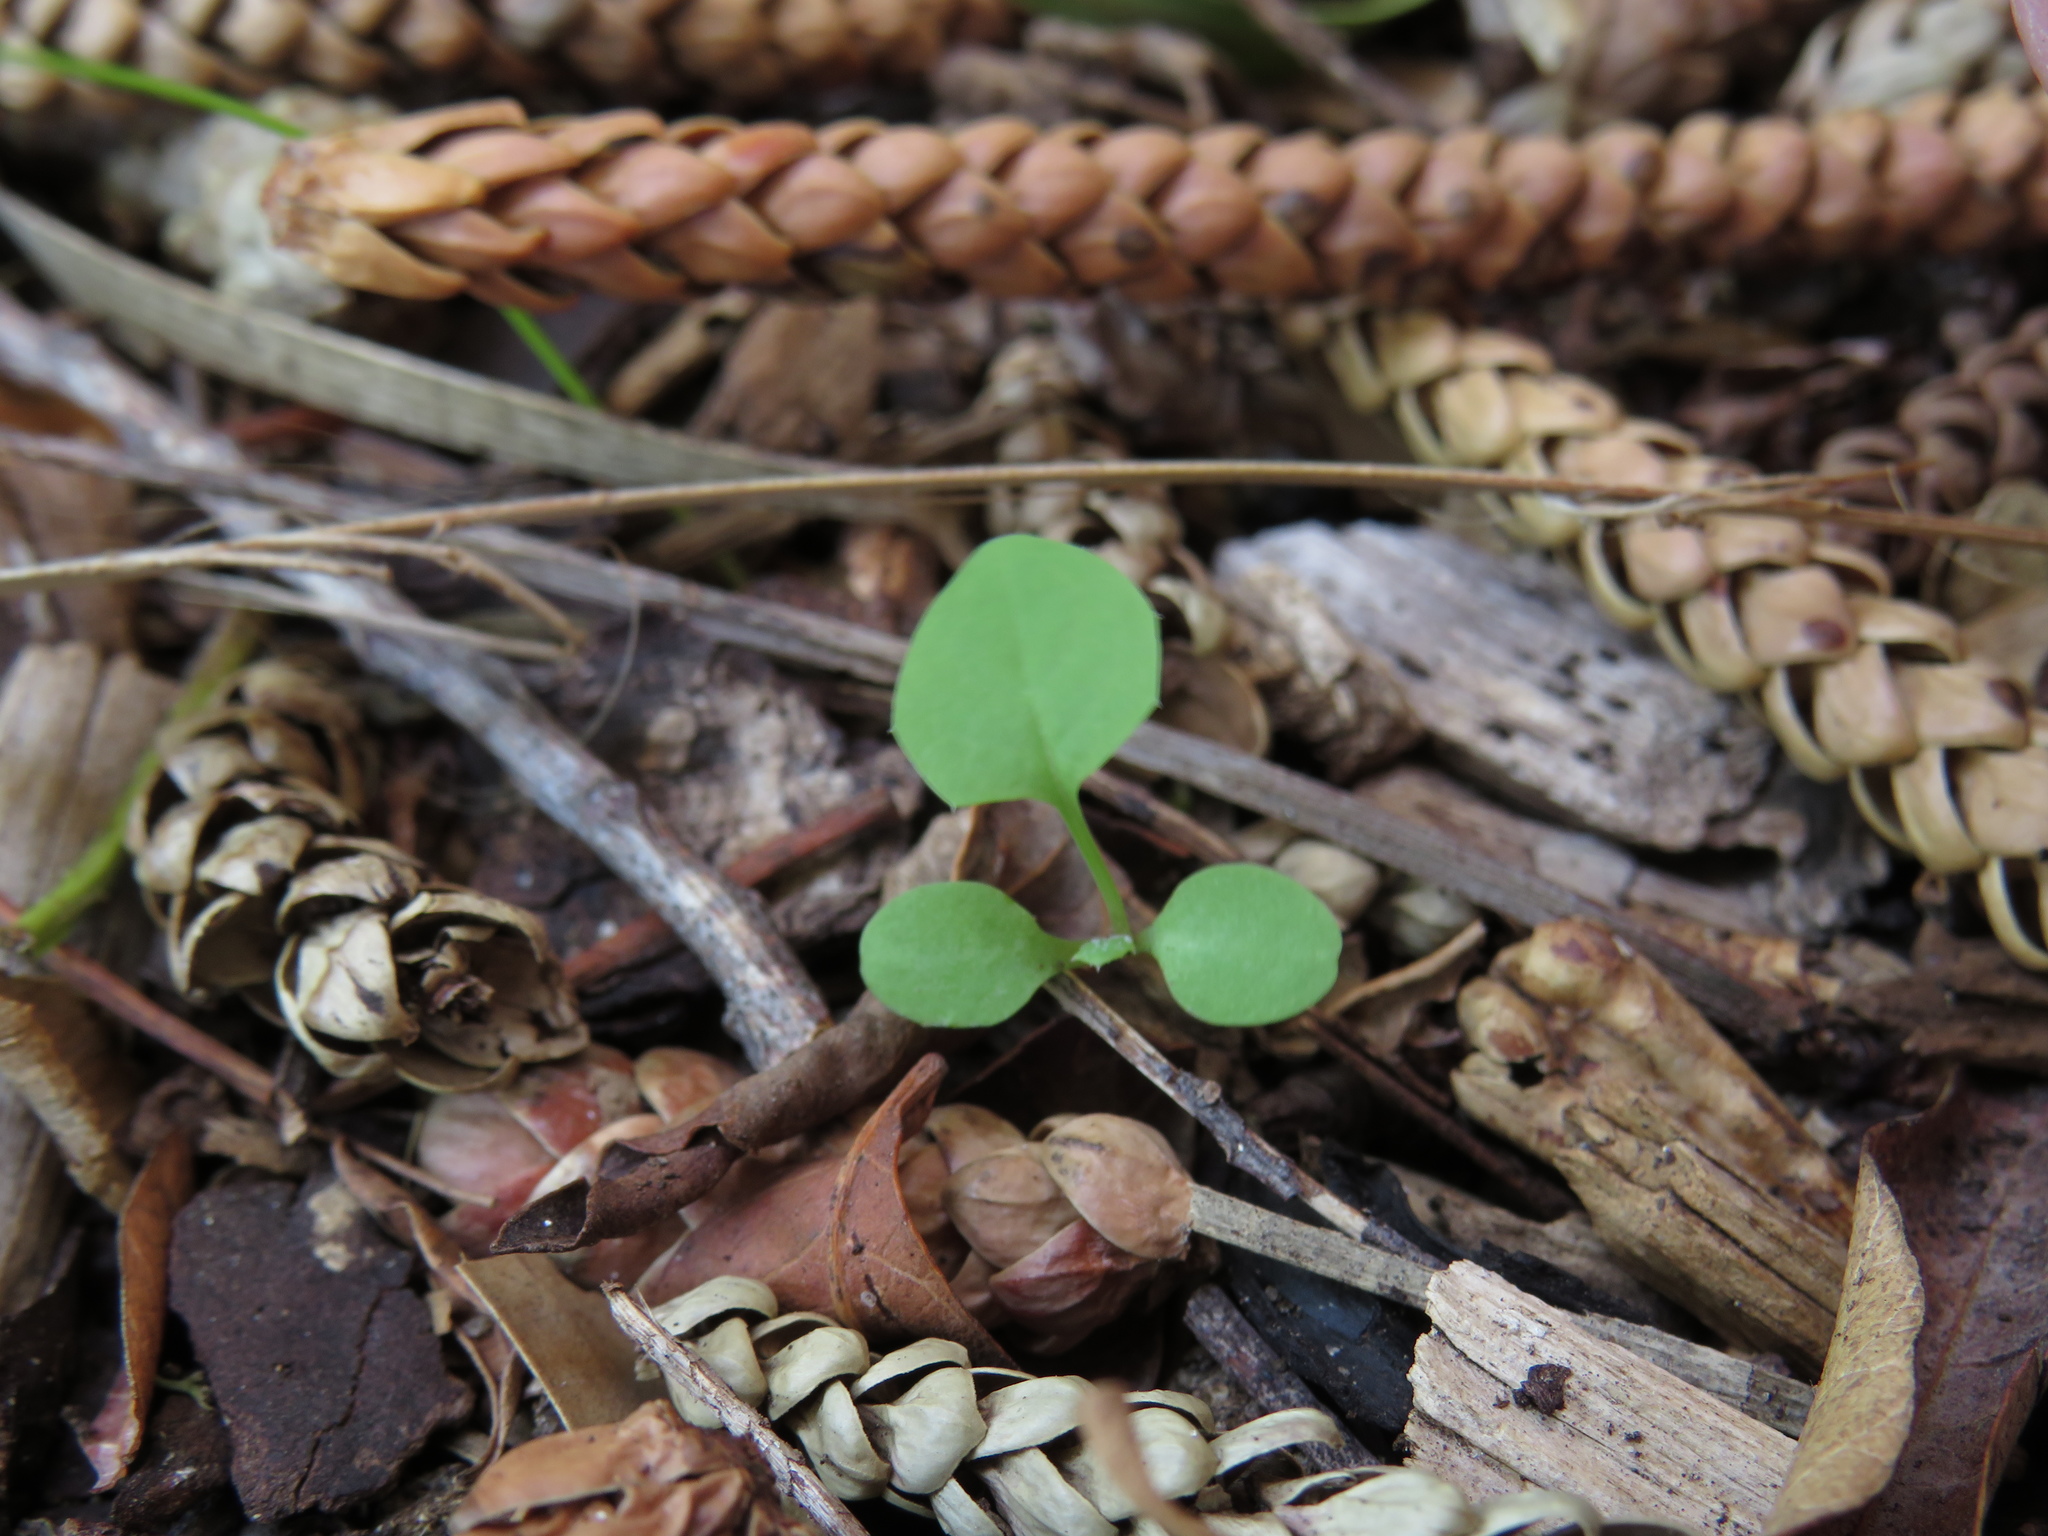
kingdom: Plantae
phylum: Tracheophyta
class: Magnoliopsida
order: Asterales
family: Asteraceae
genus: Sonchus
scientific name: Sonchus oleraceus
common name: Common sowthistle
